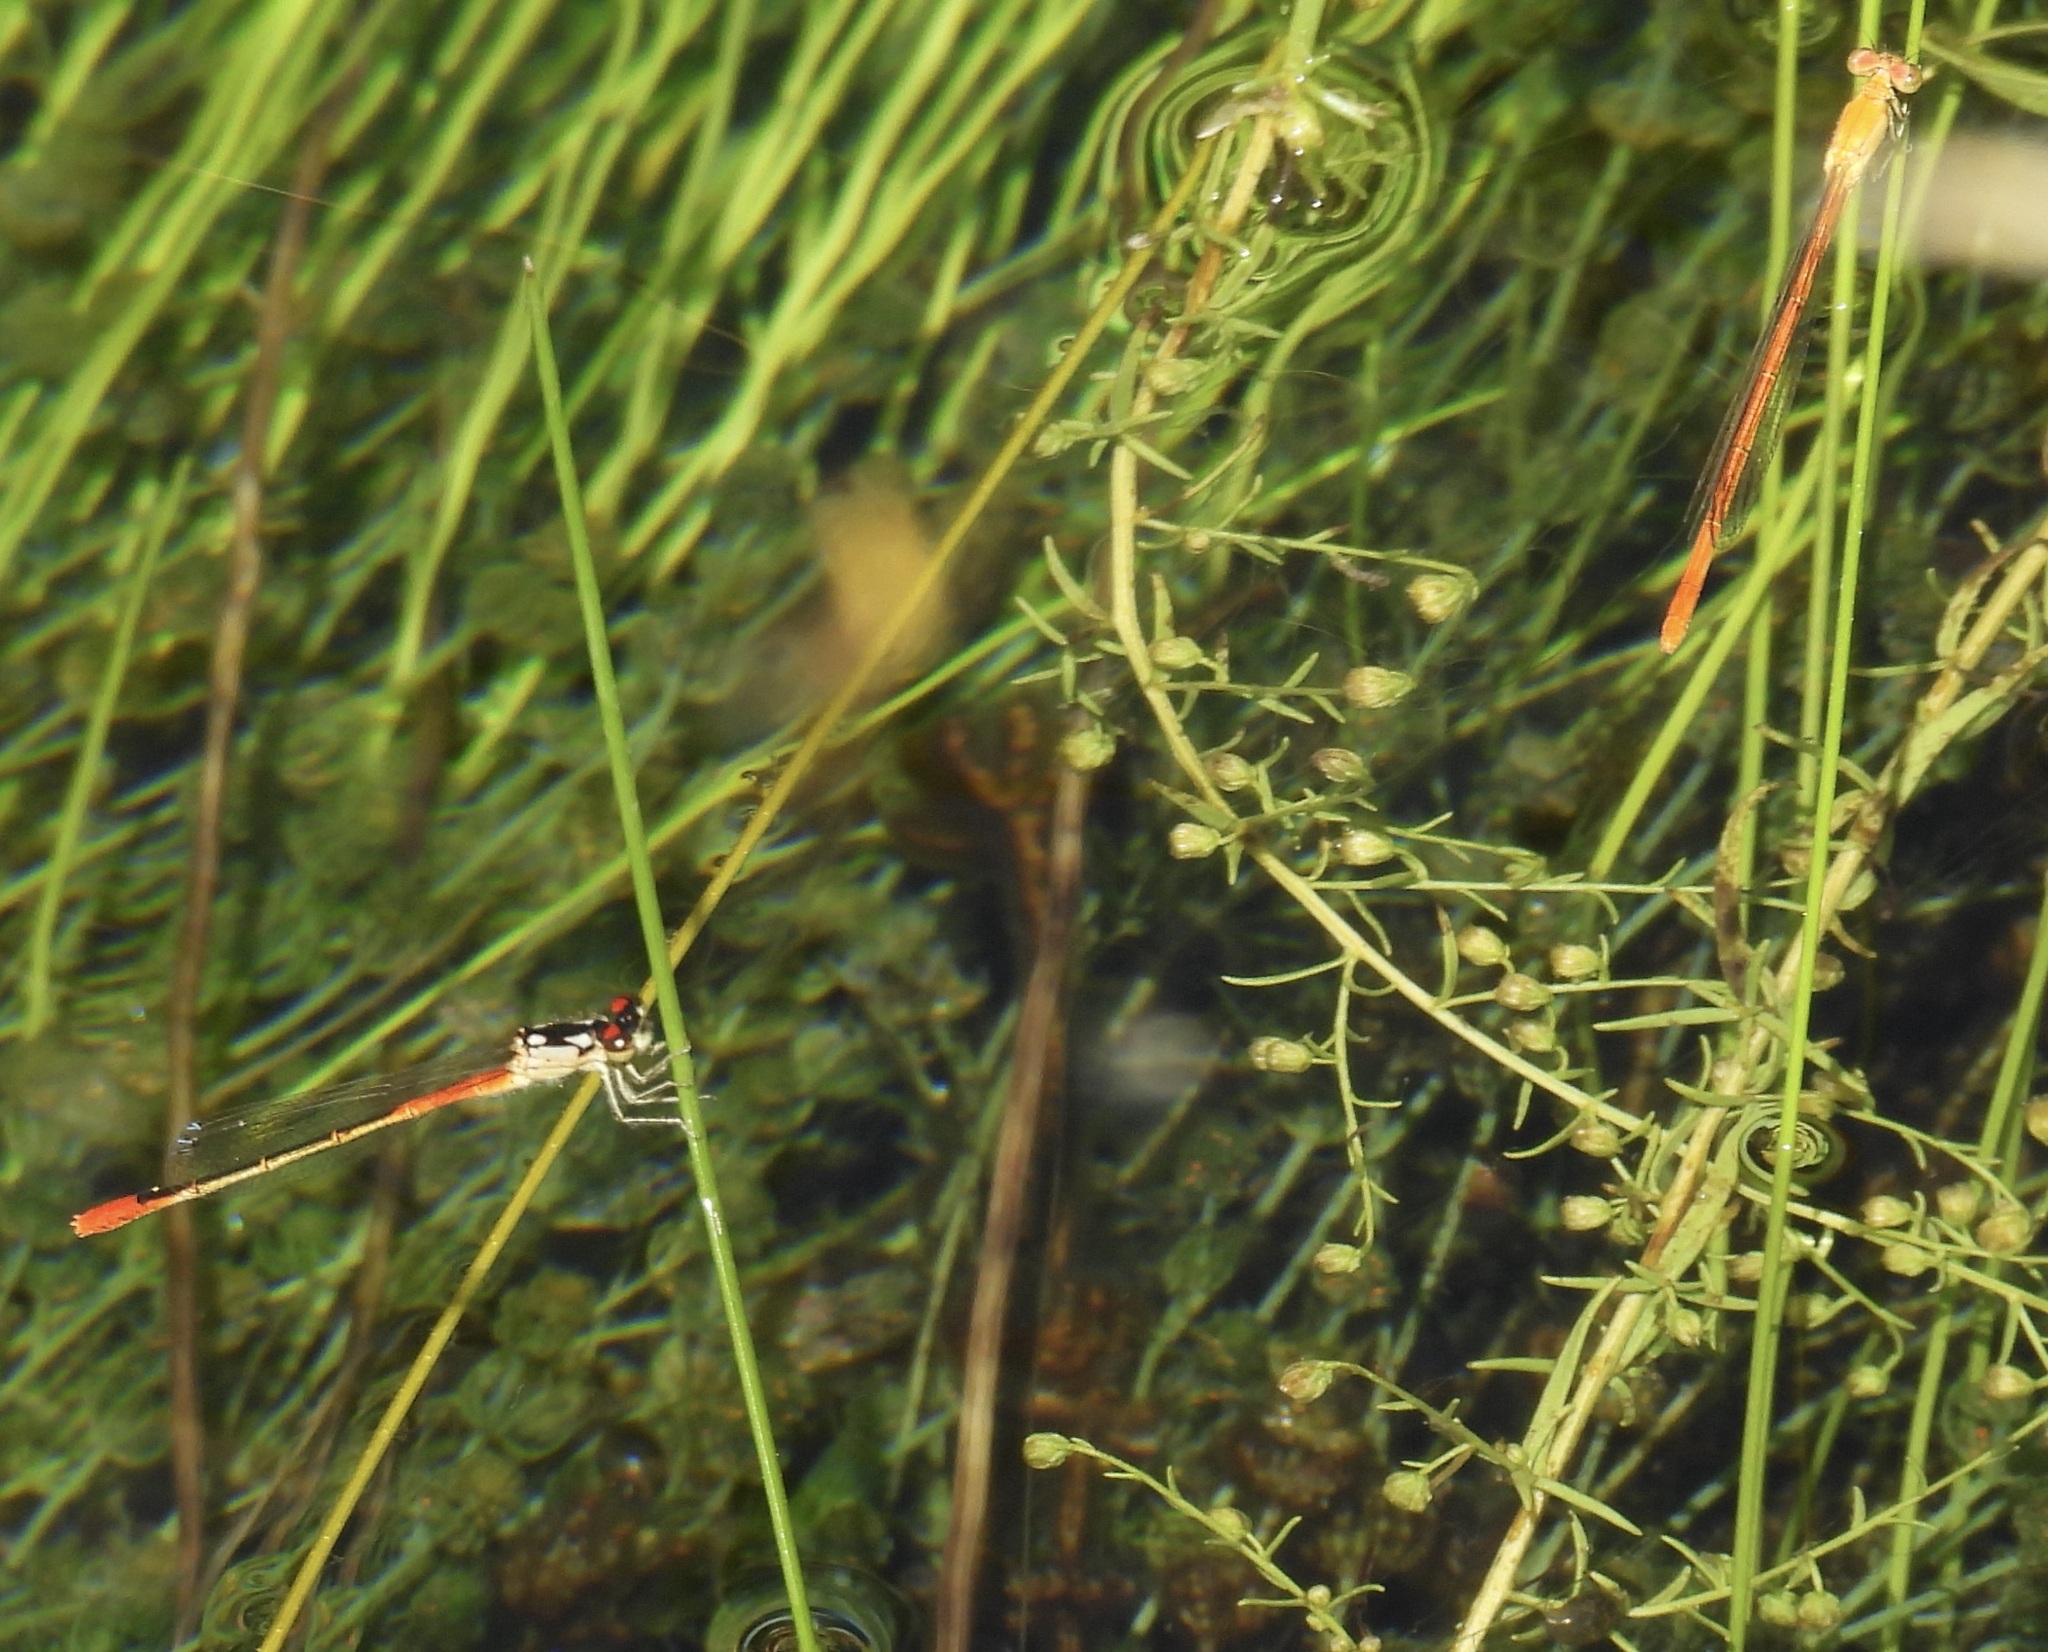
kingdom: Animalia
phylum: Arthropoda
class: Insecta
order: Odonata
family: Coenagrionidae
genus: Hesperagrion
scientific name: Hesperagrion heterodoxum
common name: Painted damsel
